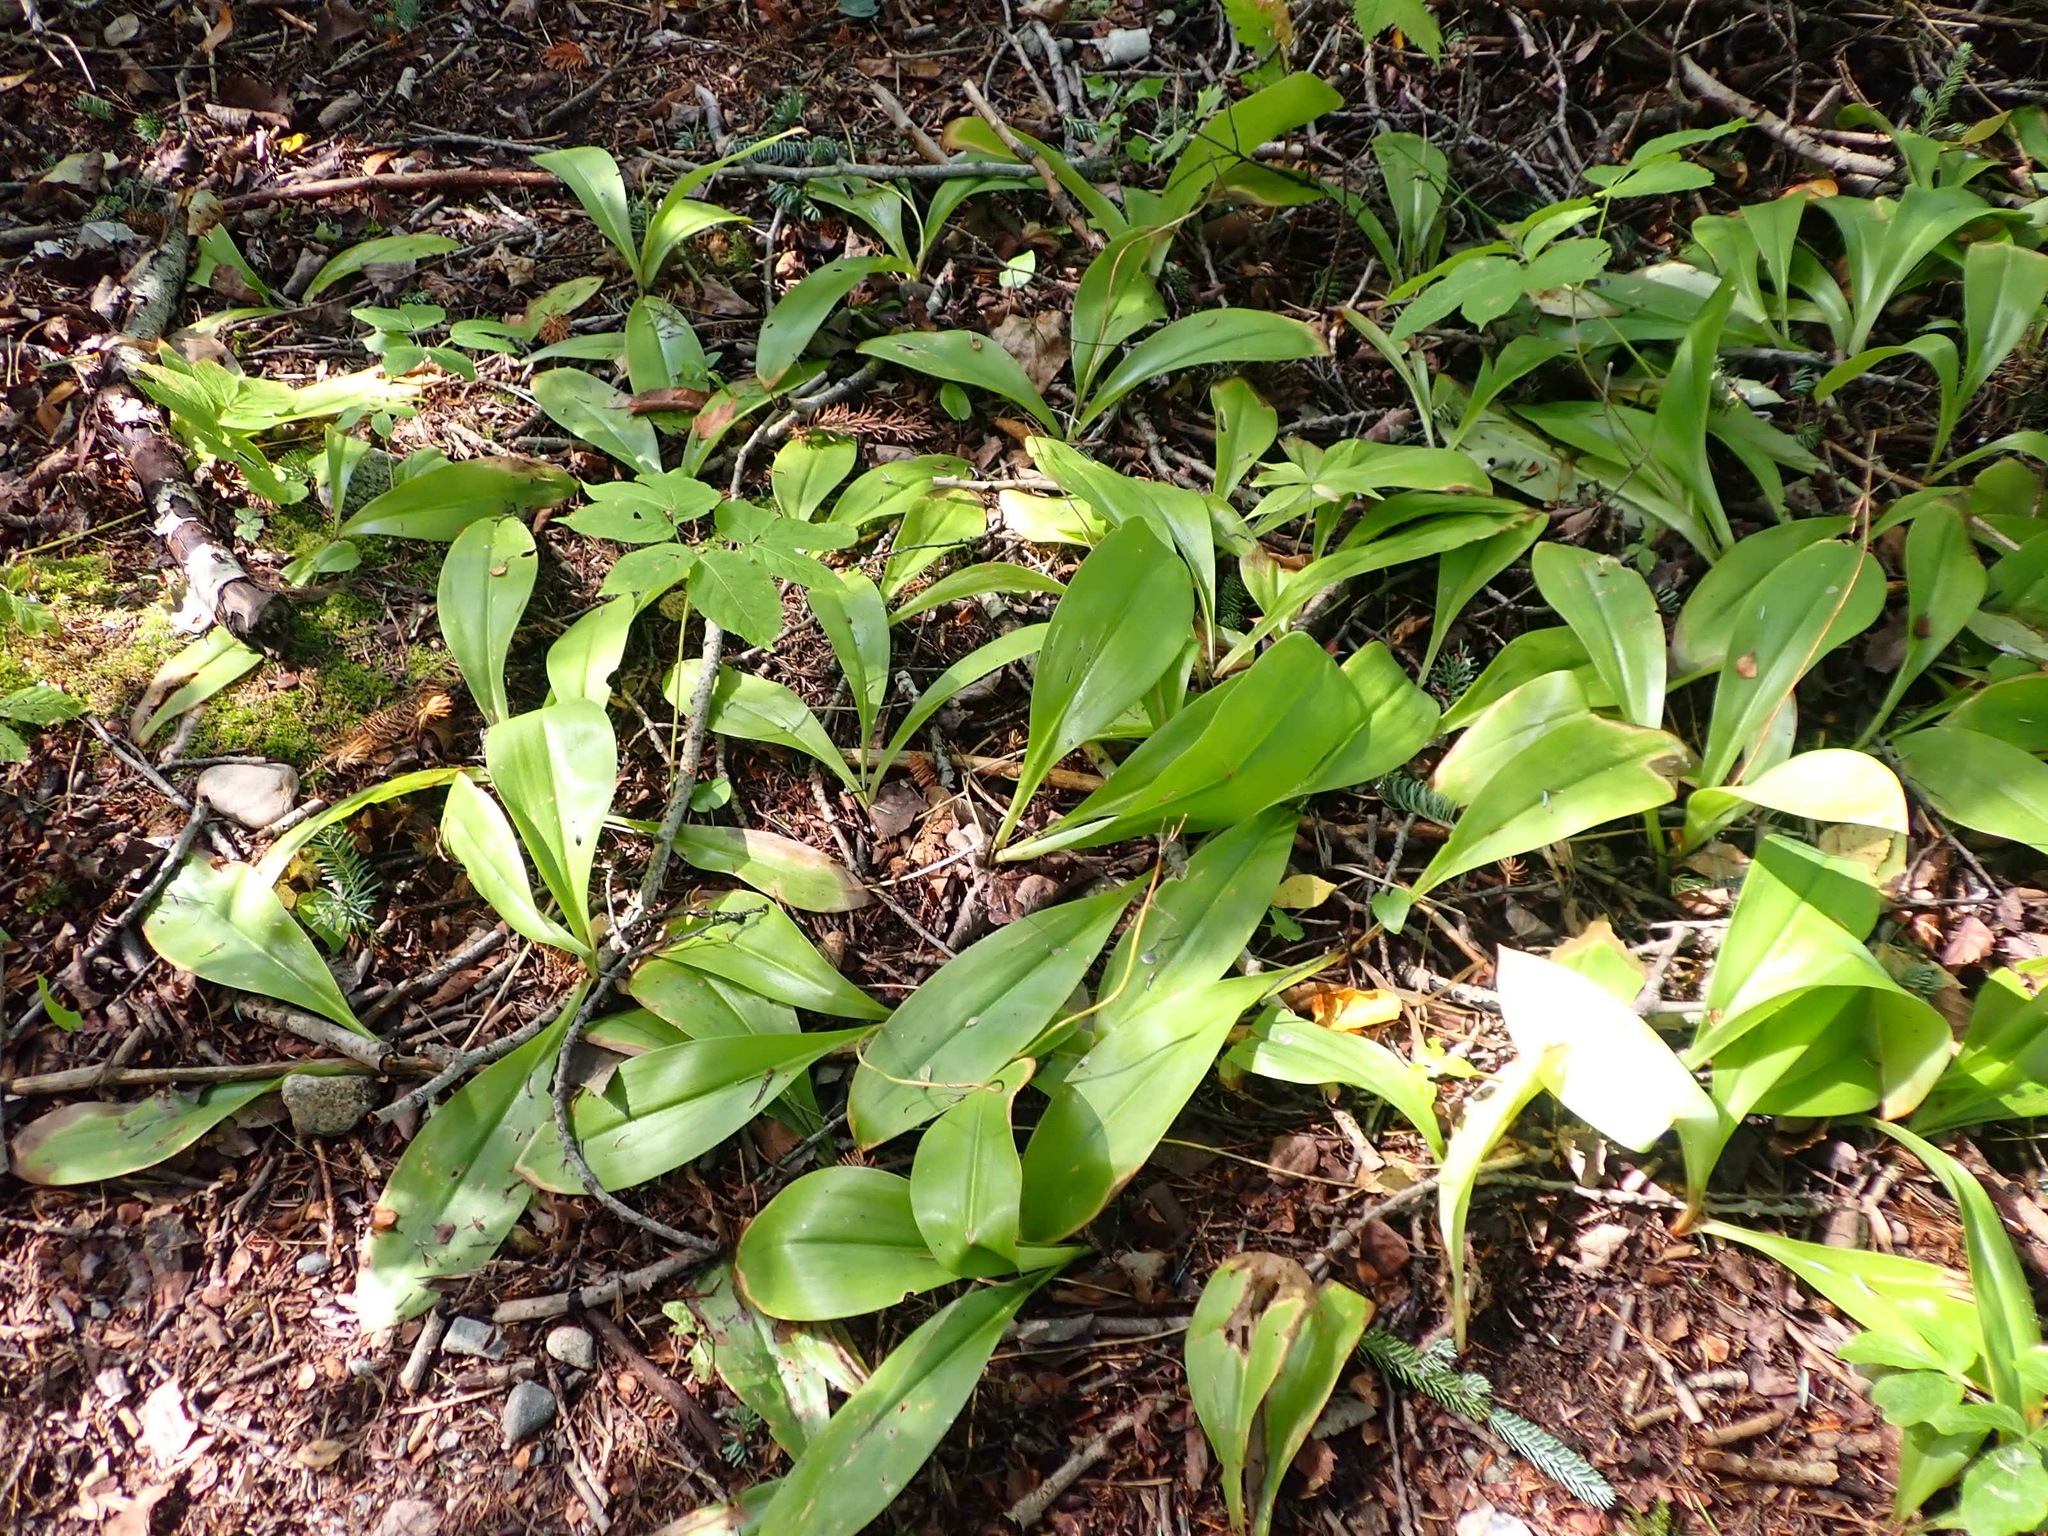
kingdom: Plantae
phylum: Tracheophyta
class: Liliopsida
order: Liliales
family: Liliaceae
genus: Clintonia
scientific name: Clintonia borealis
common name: Yellow clintonia
